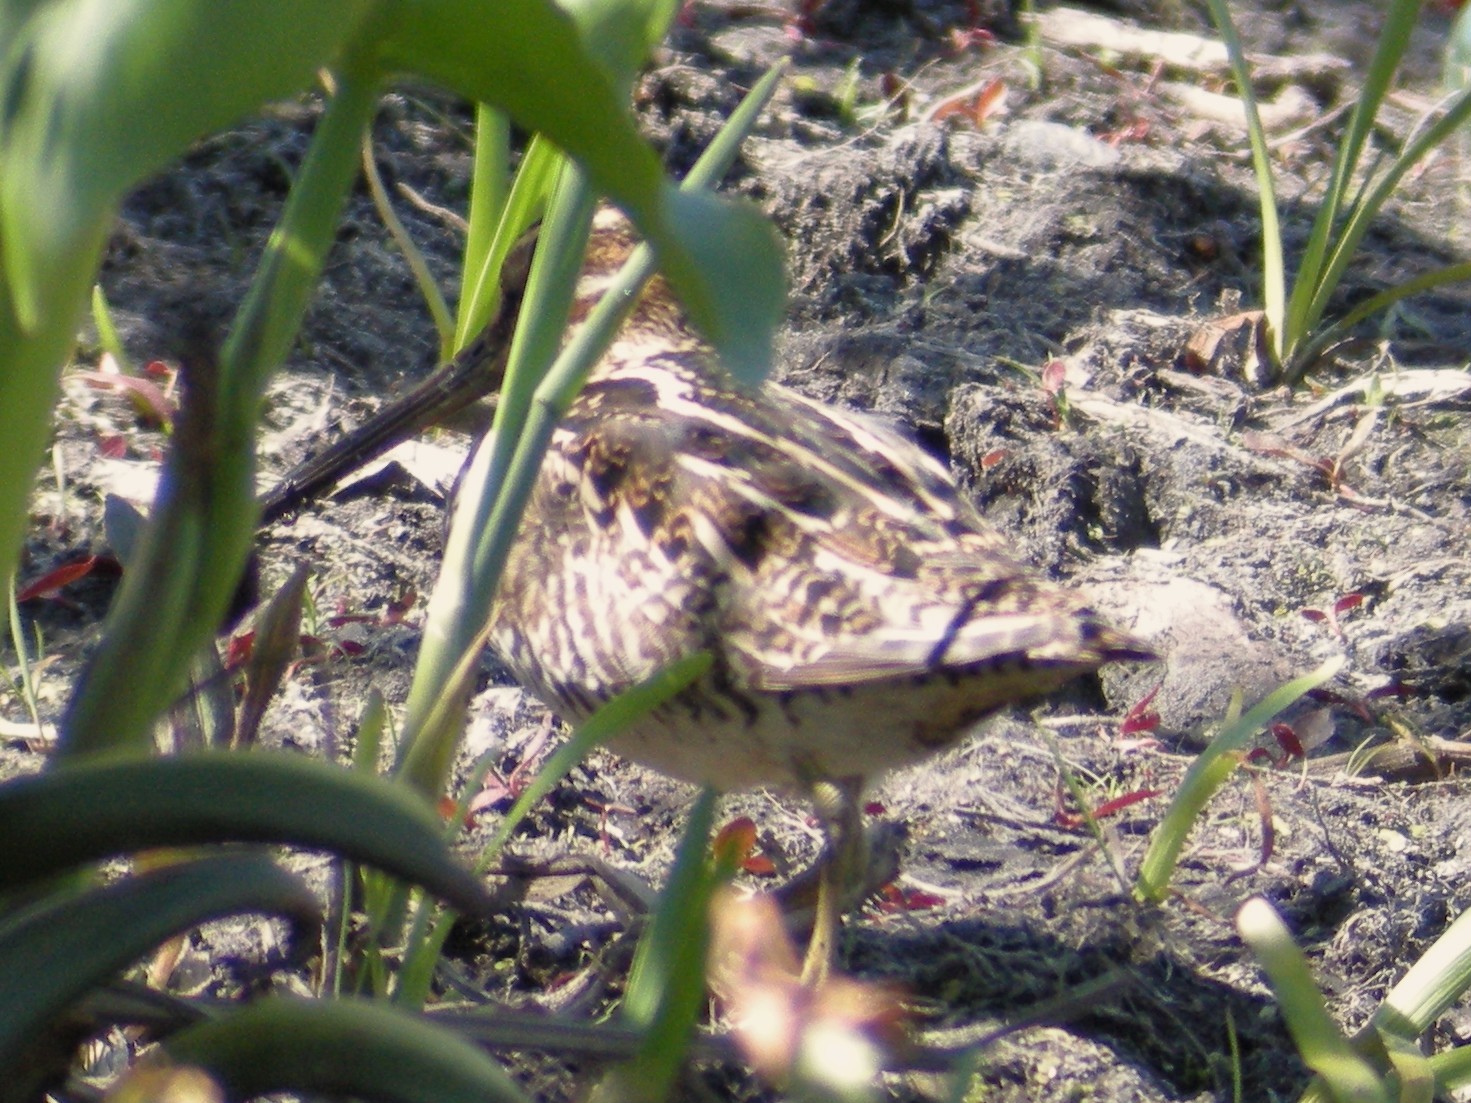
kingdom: Animalia
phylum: Chordata
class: Aves
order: Charadriiformes
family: Scolopacidae
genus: Gallinago
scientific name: Gallinago delicata
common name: Wilson's snipe
